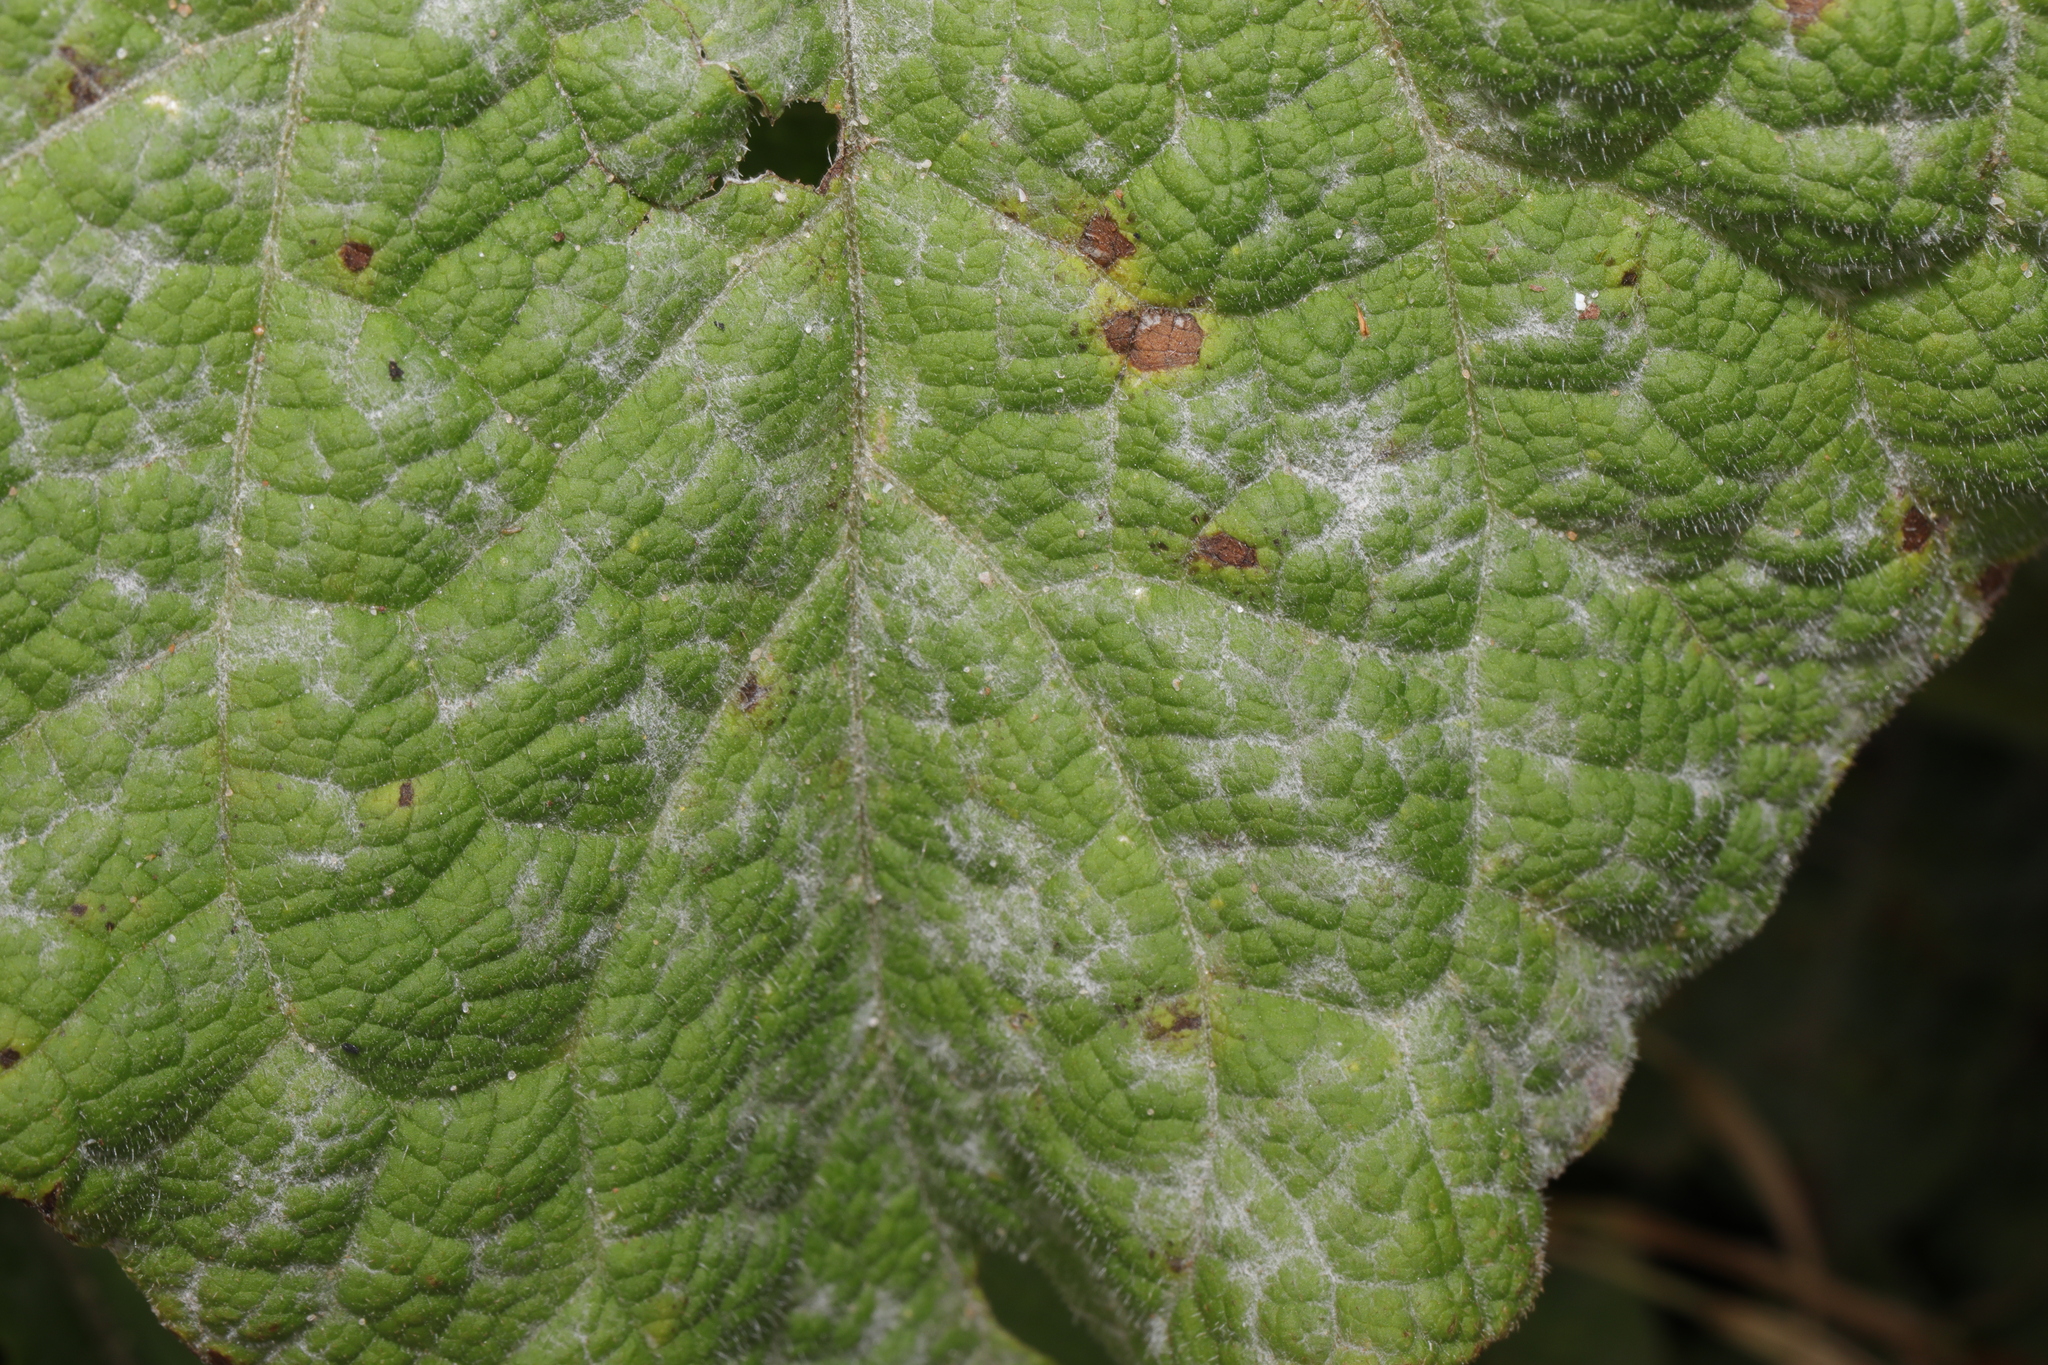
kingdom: Fungi
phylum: Ascomycota
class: Leotiomycetes
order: Helotiales
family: Erysiphaceae
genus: Golovinomyces
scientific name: Golovinomyces depressus
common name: Burdock mildew
